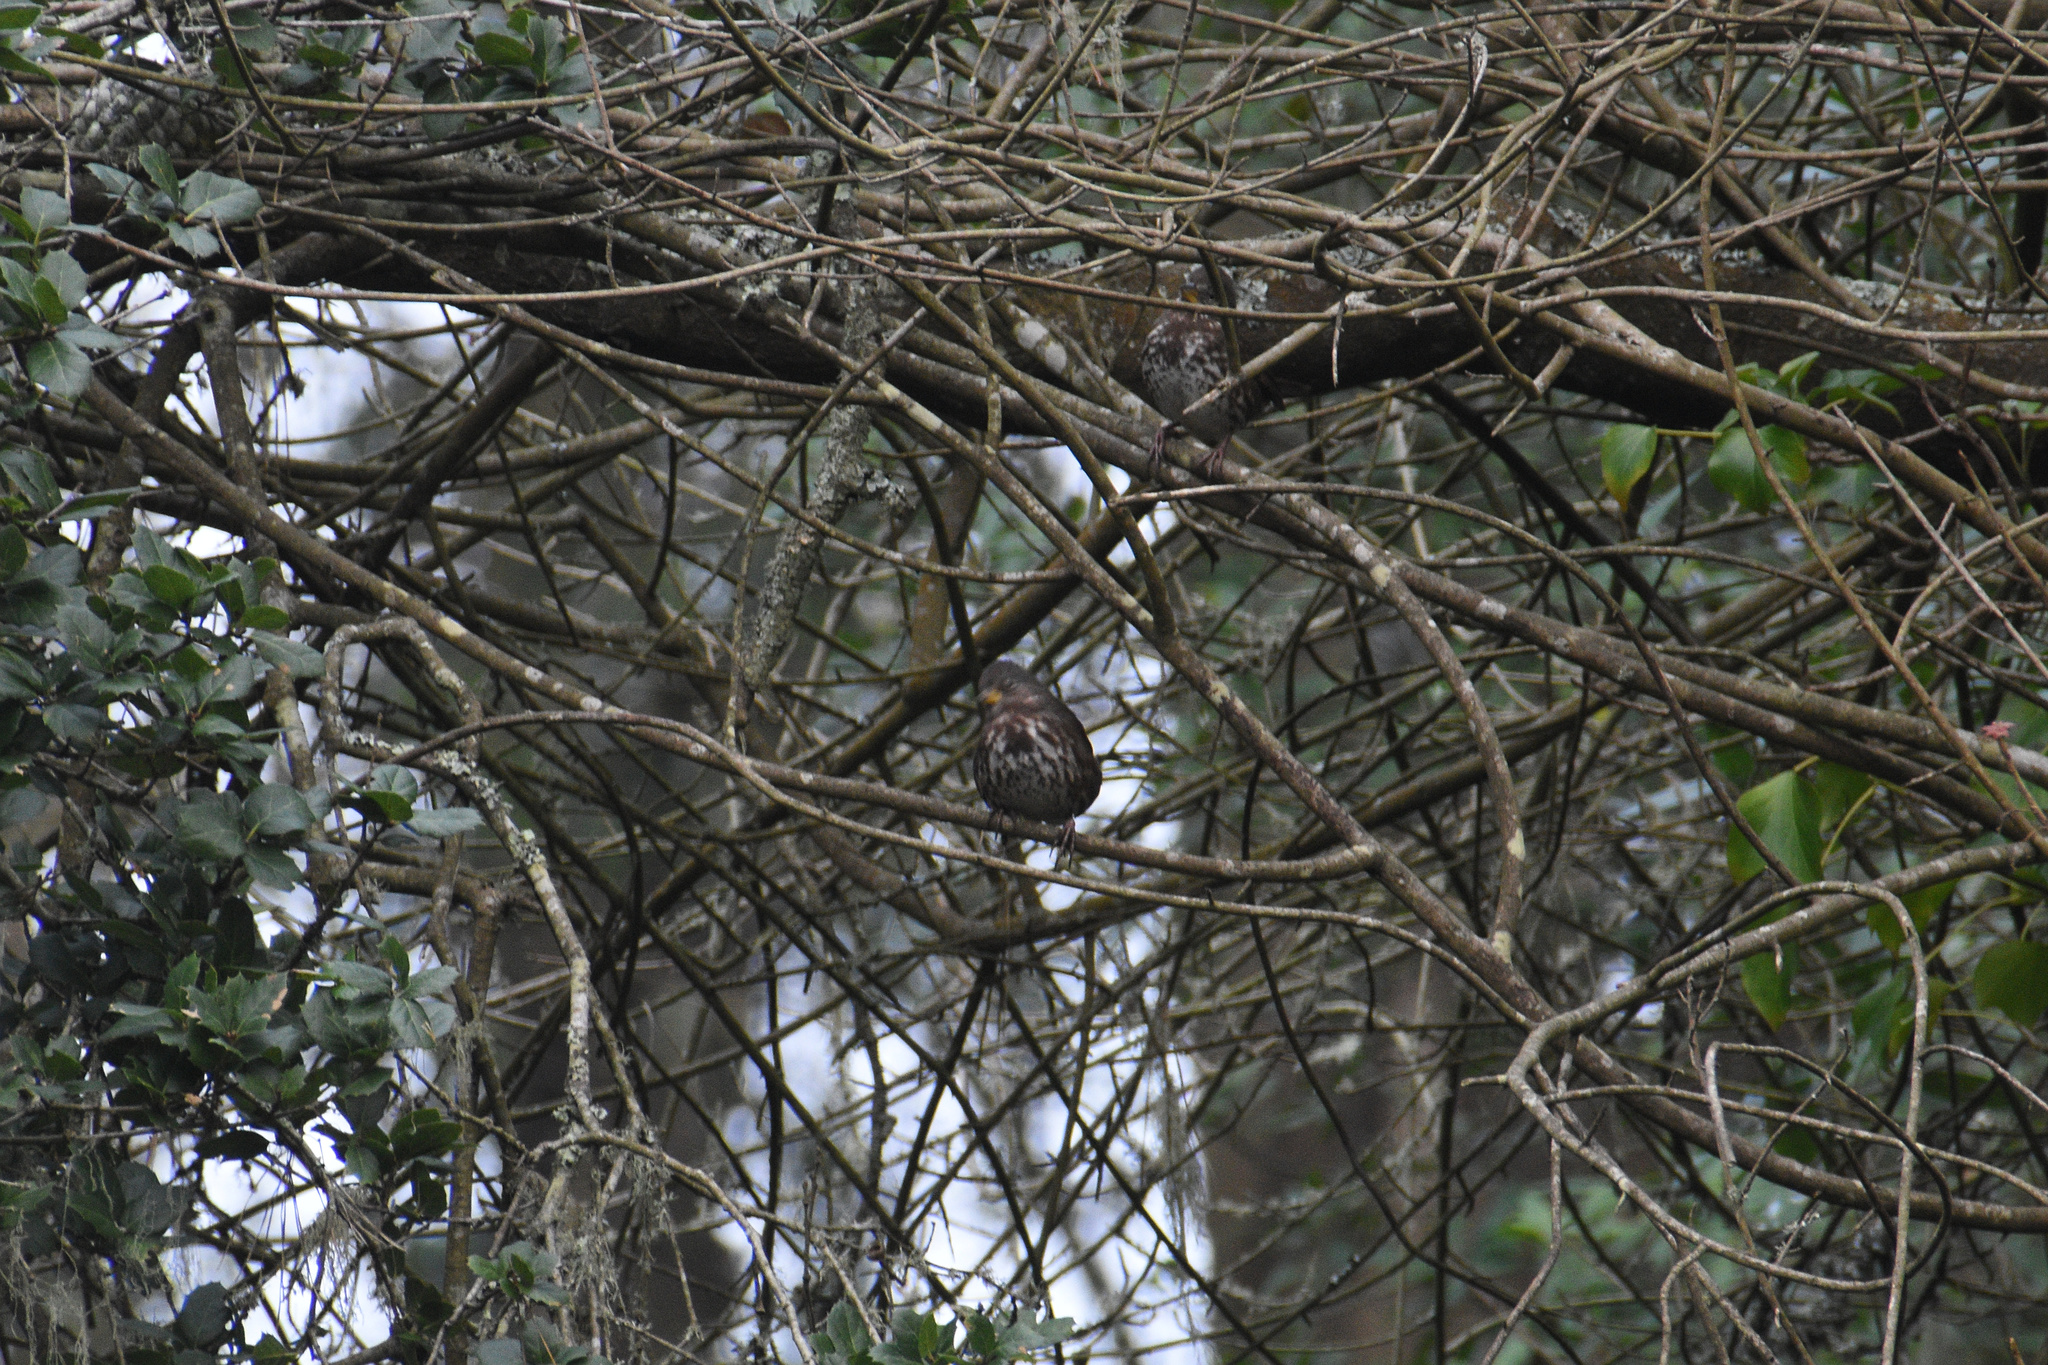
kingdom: Animalia
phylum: Chordata
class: Aves
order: Passeriformes
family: Passerellidae
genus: Passerella
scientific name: Passerella iliaca
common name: Fox sparrow
